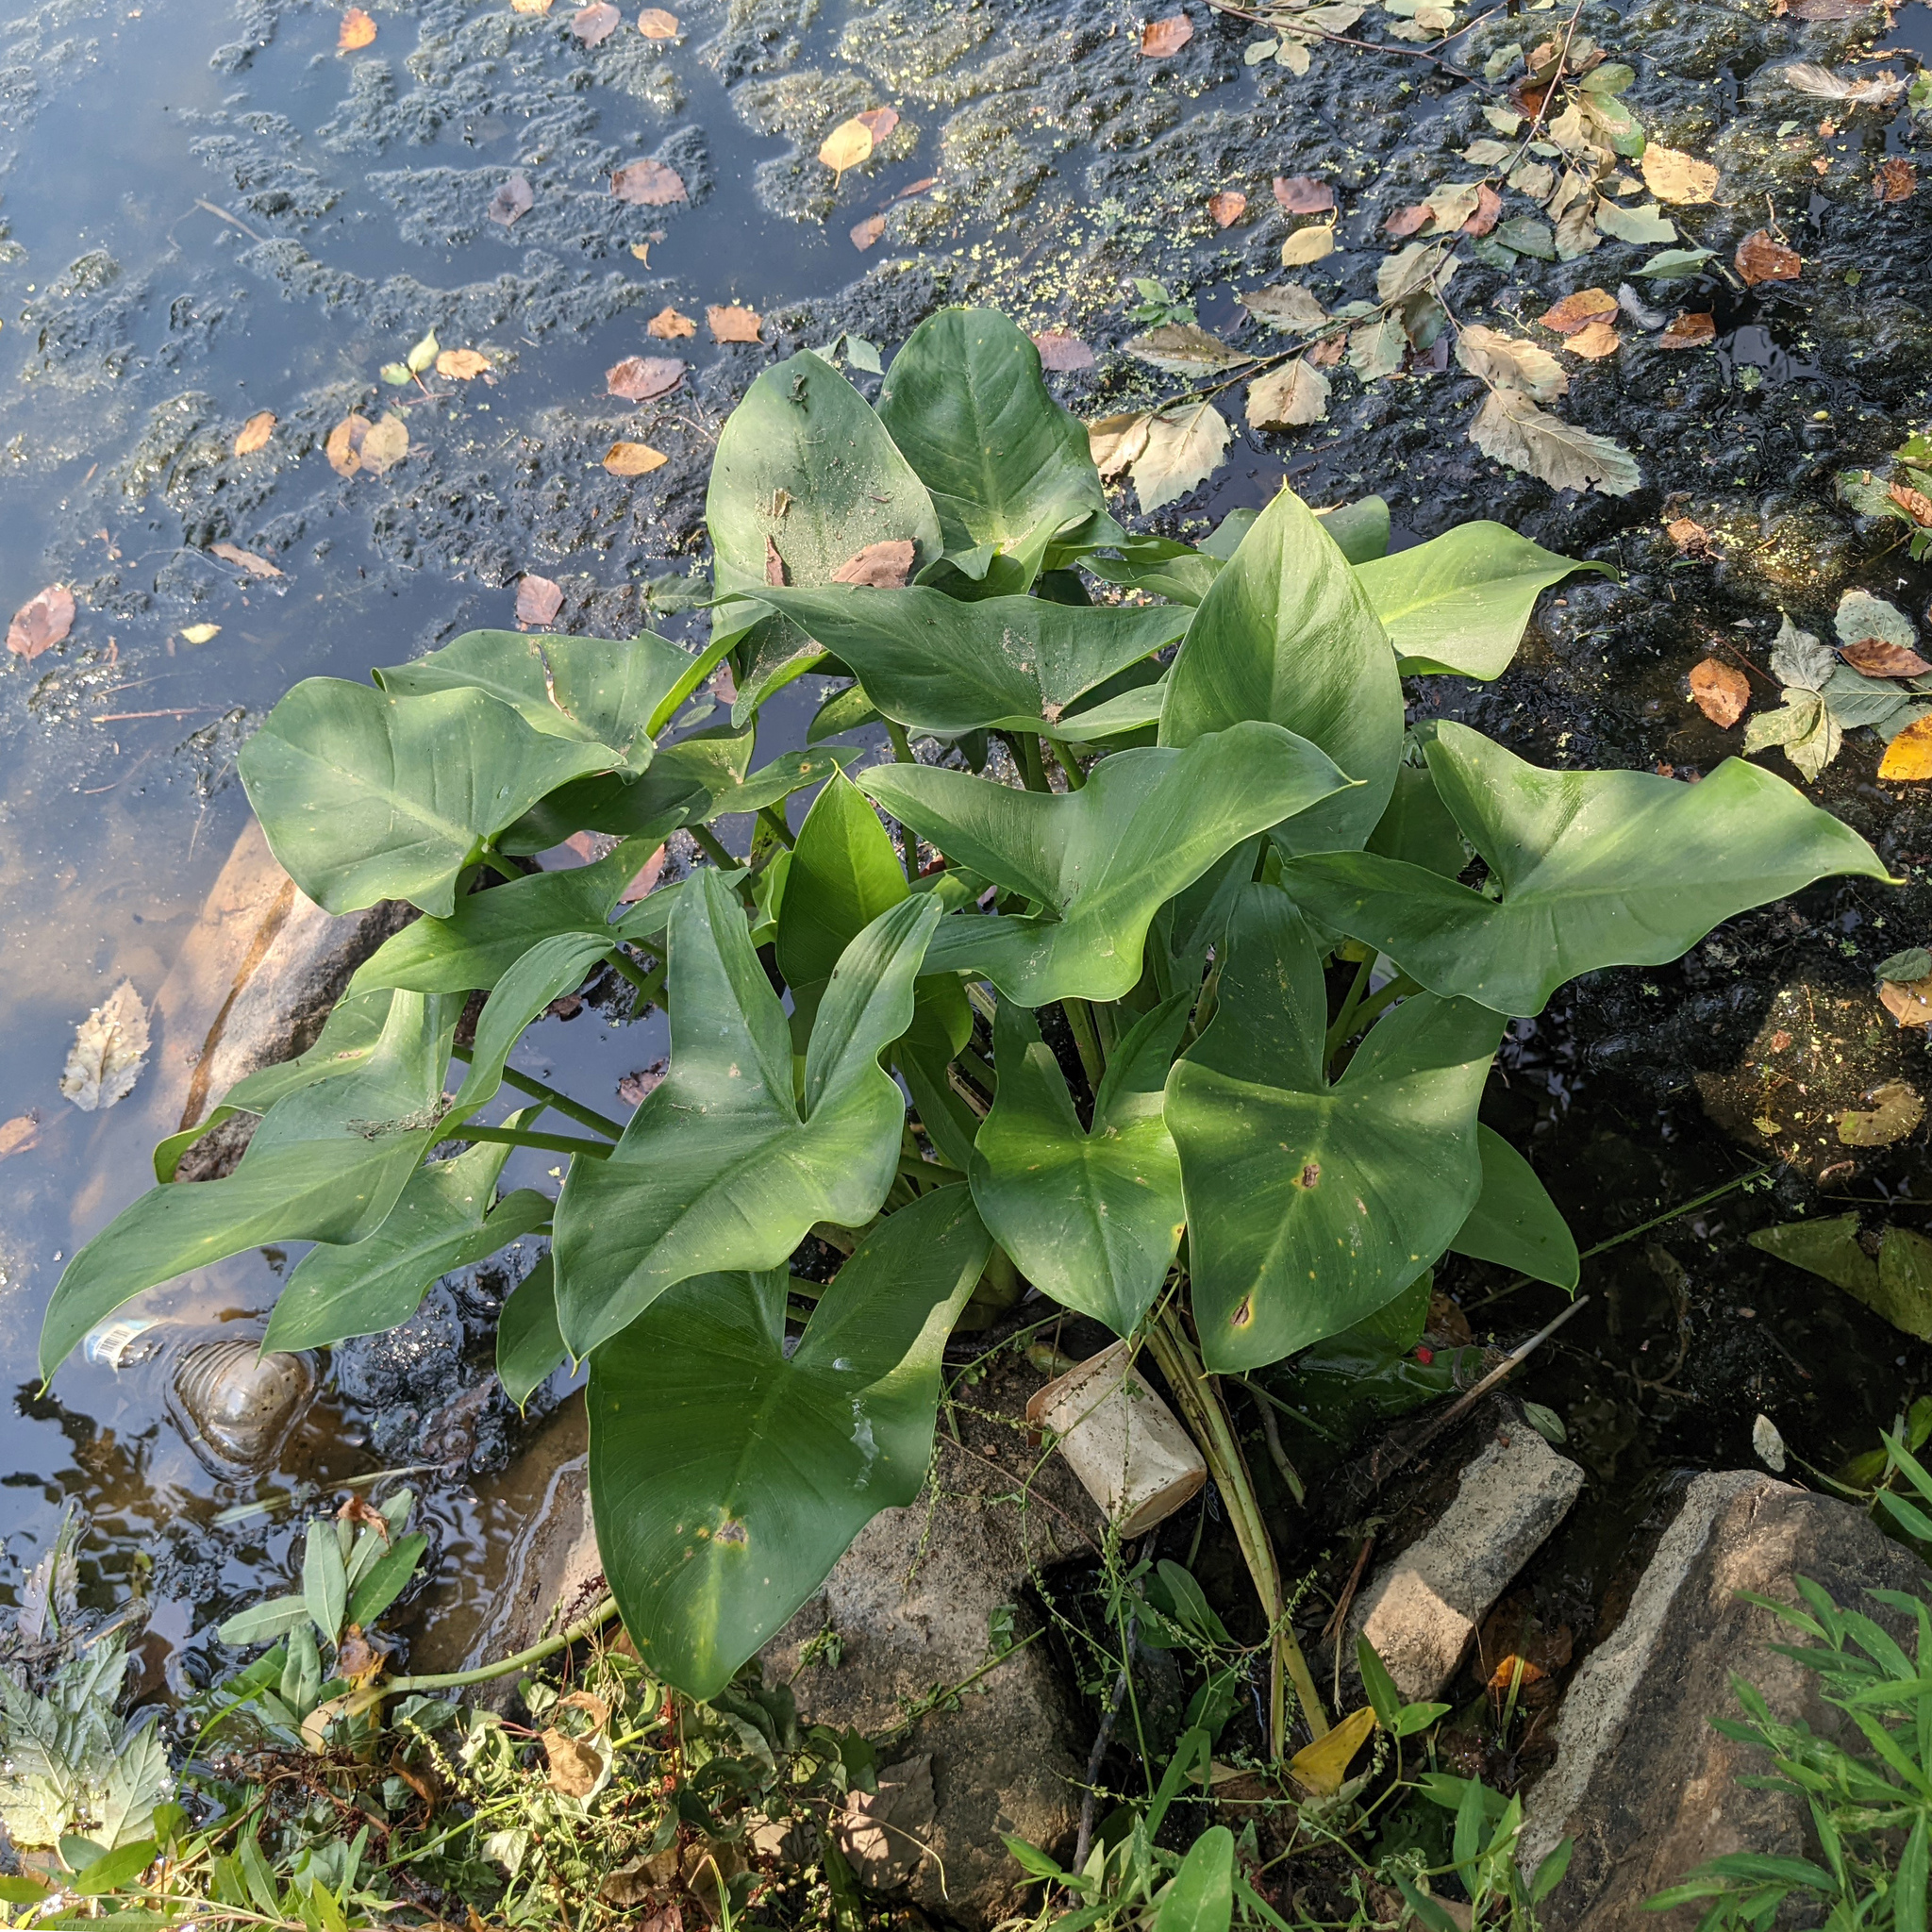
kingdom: Plantae
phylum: Tracheophyta
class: Liliopsida
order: Alismatales
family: Araceae
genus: Peltandra
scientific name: Peltandra virginica
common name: Arrow arum
